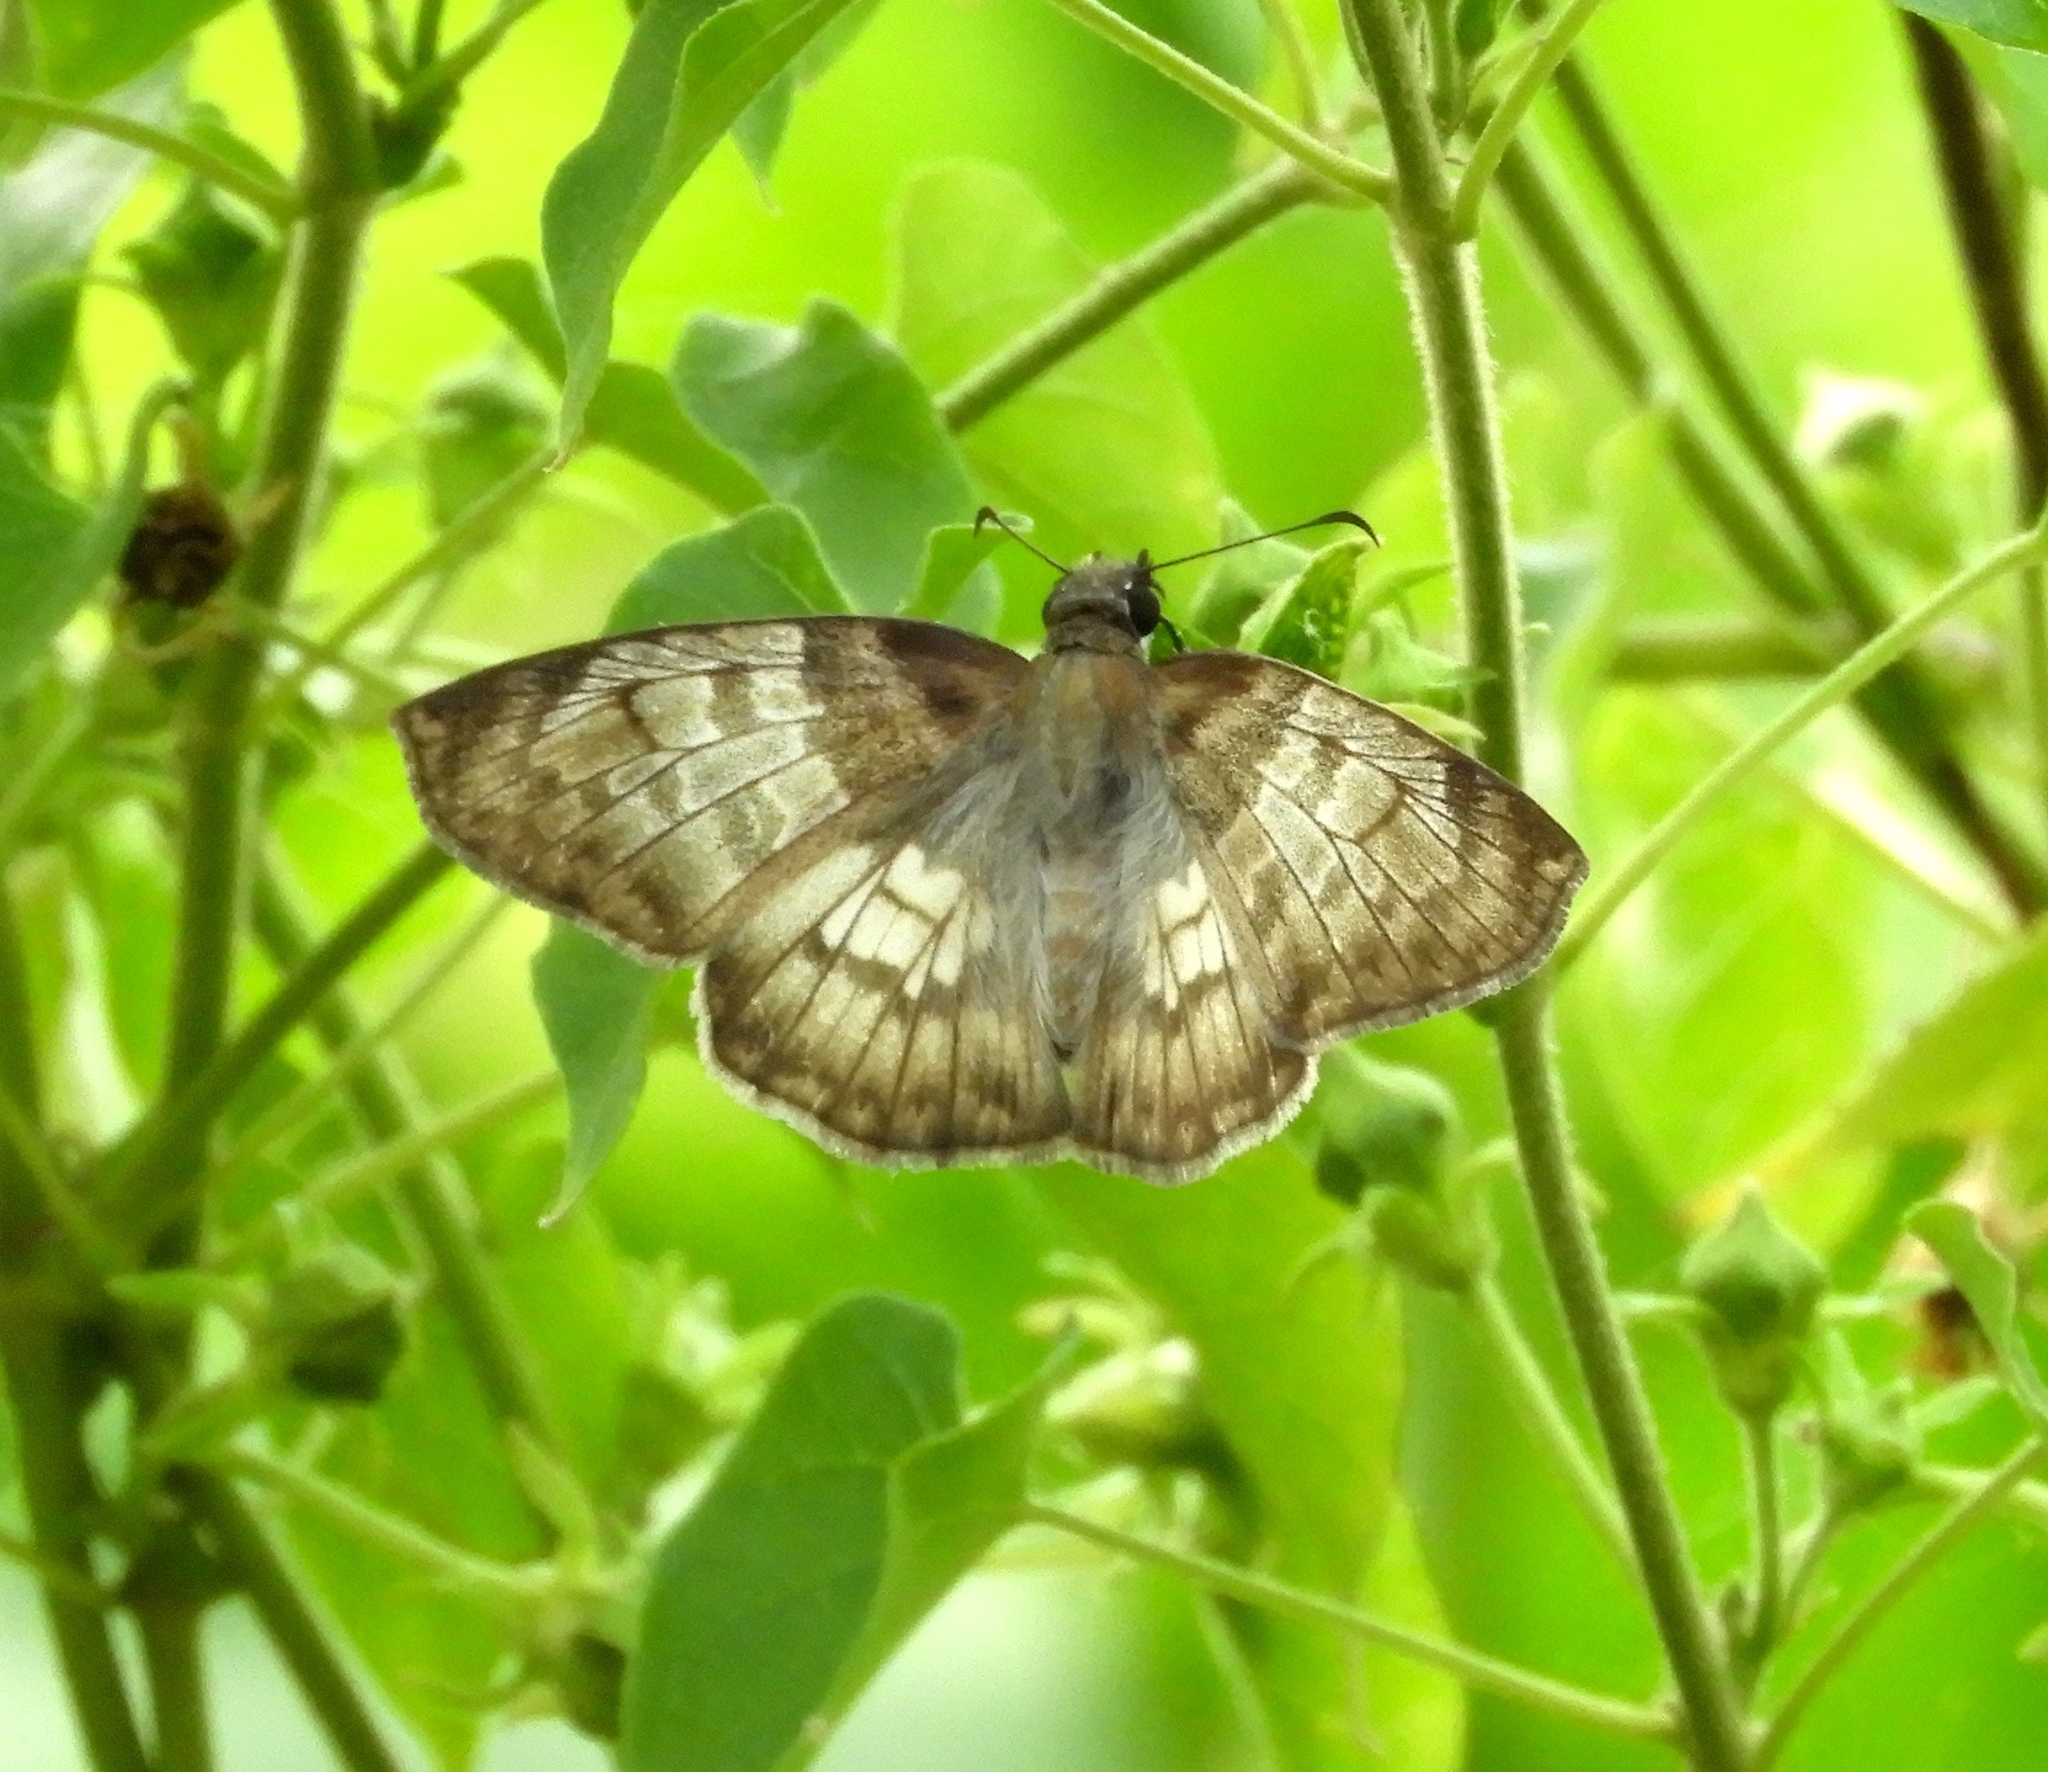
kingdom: Animalia
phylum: Arthropoda
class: Insecta
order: Lepidoptera
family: Hesperiidae
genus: Mylon
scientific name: Mylon pelopidas
